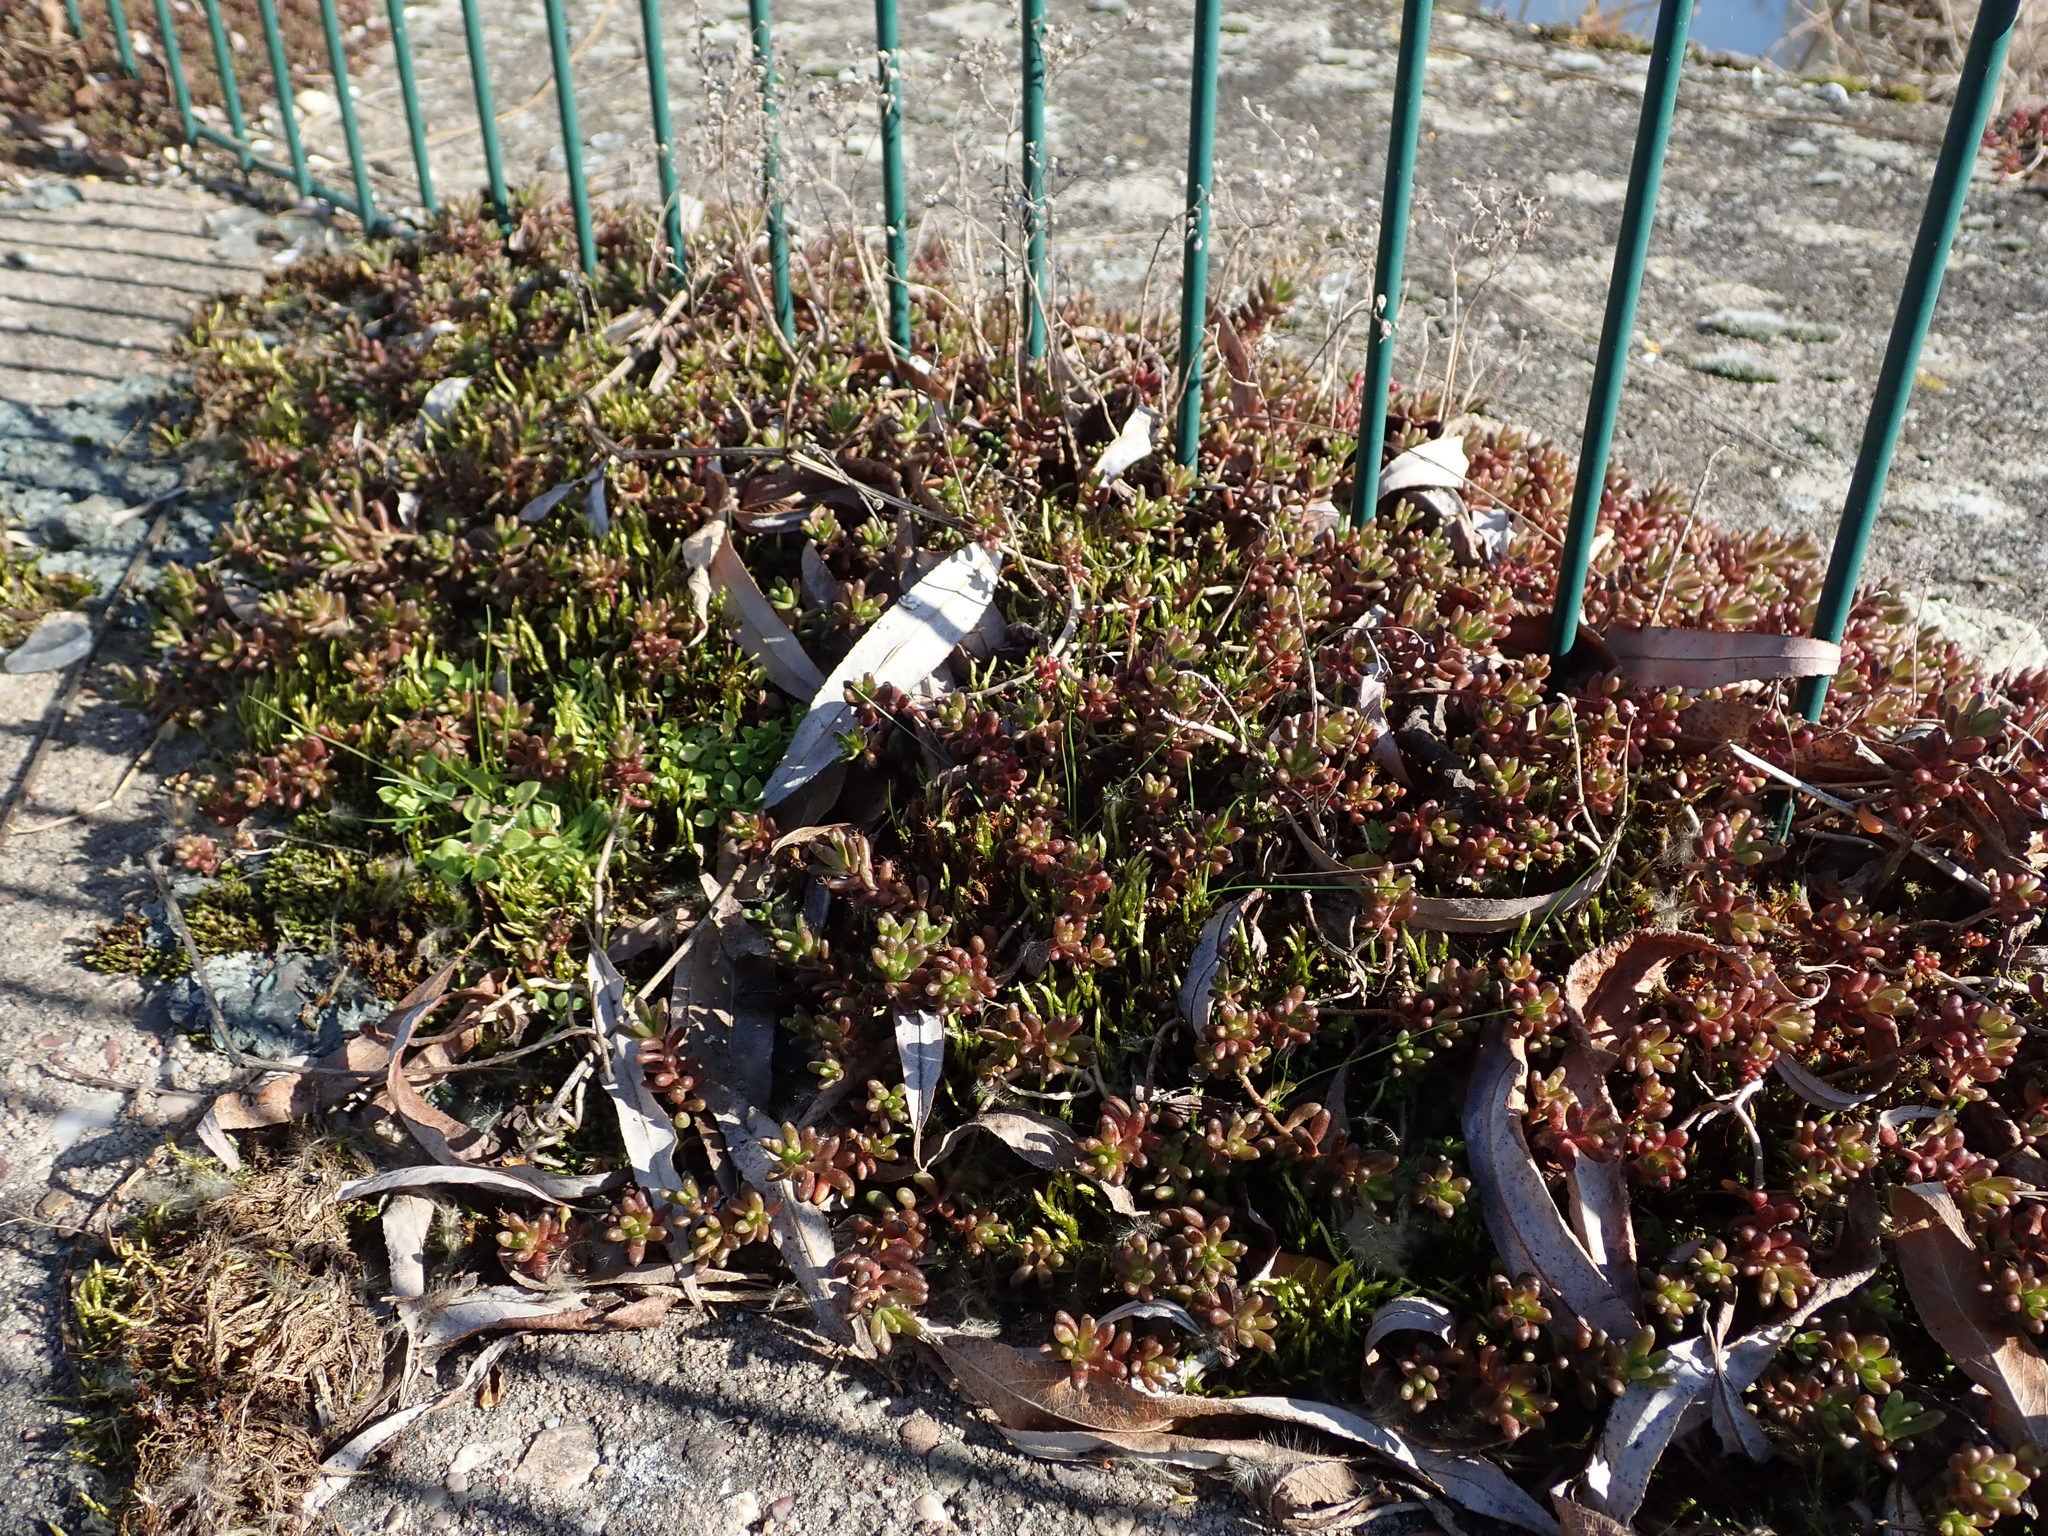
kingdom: Plantae
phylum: Tracheophyta
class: Magnoliopsida
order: Saxifragales
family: Crassulaceae
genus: Sedum
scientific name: Sedum album
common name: White stonecrop
